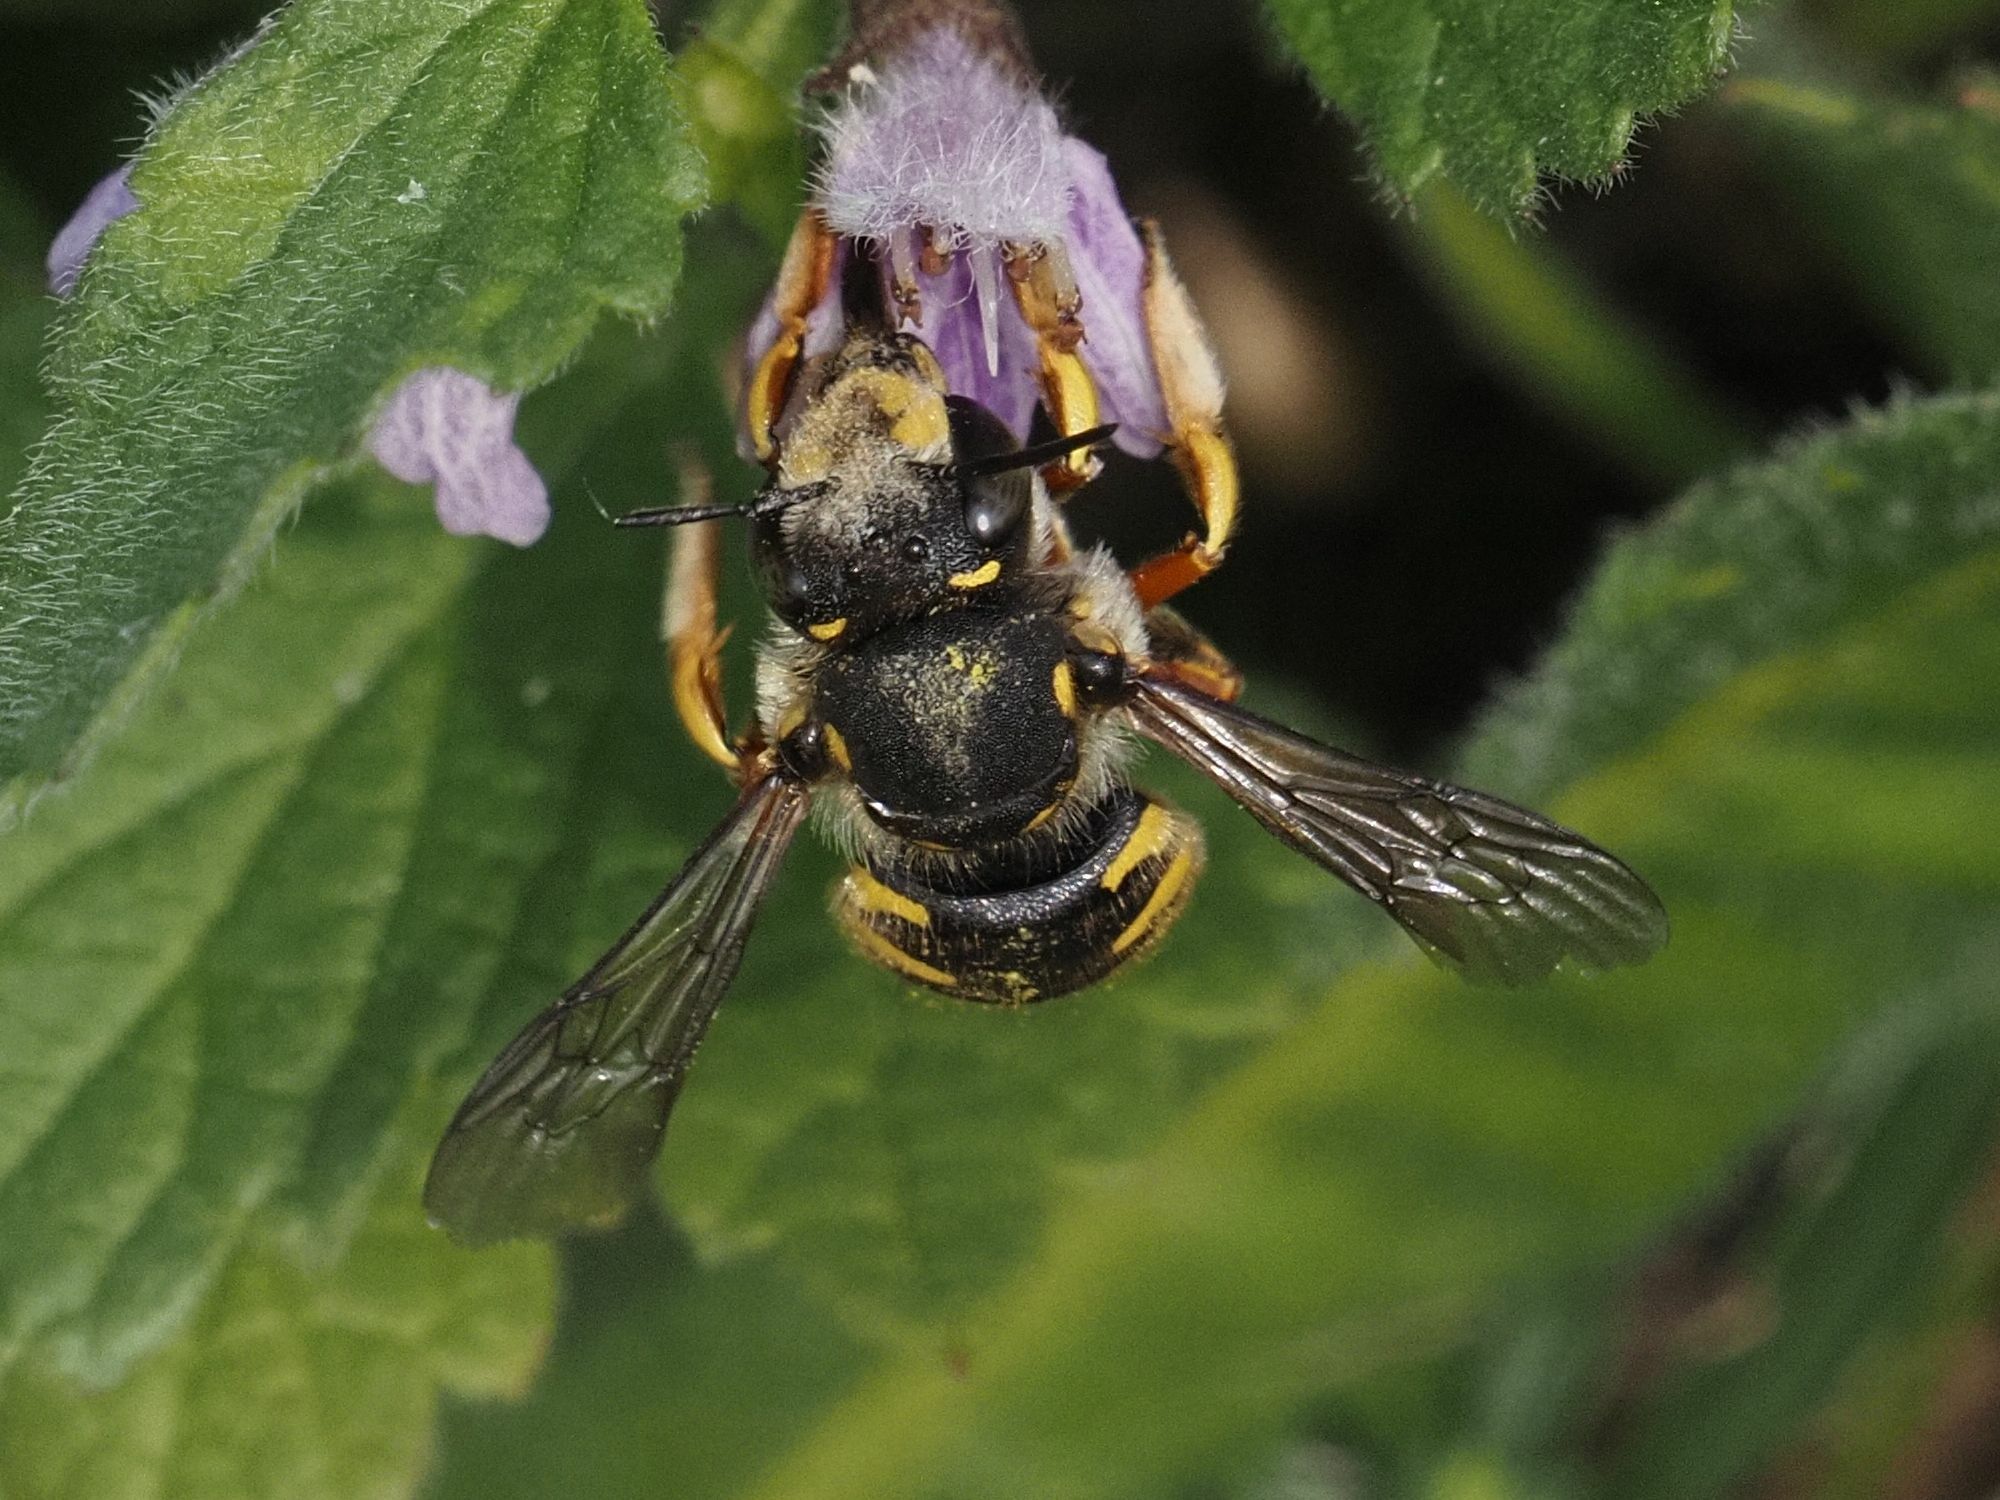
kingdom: Animalia
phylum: Arthropoda
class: Insecta
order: Hymenoptera
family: Megachilidae
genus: Anthidium
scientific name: Anthidium manicatum
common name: Wool carder bee
